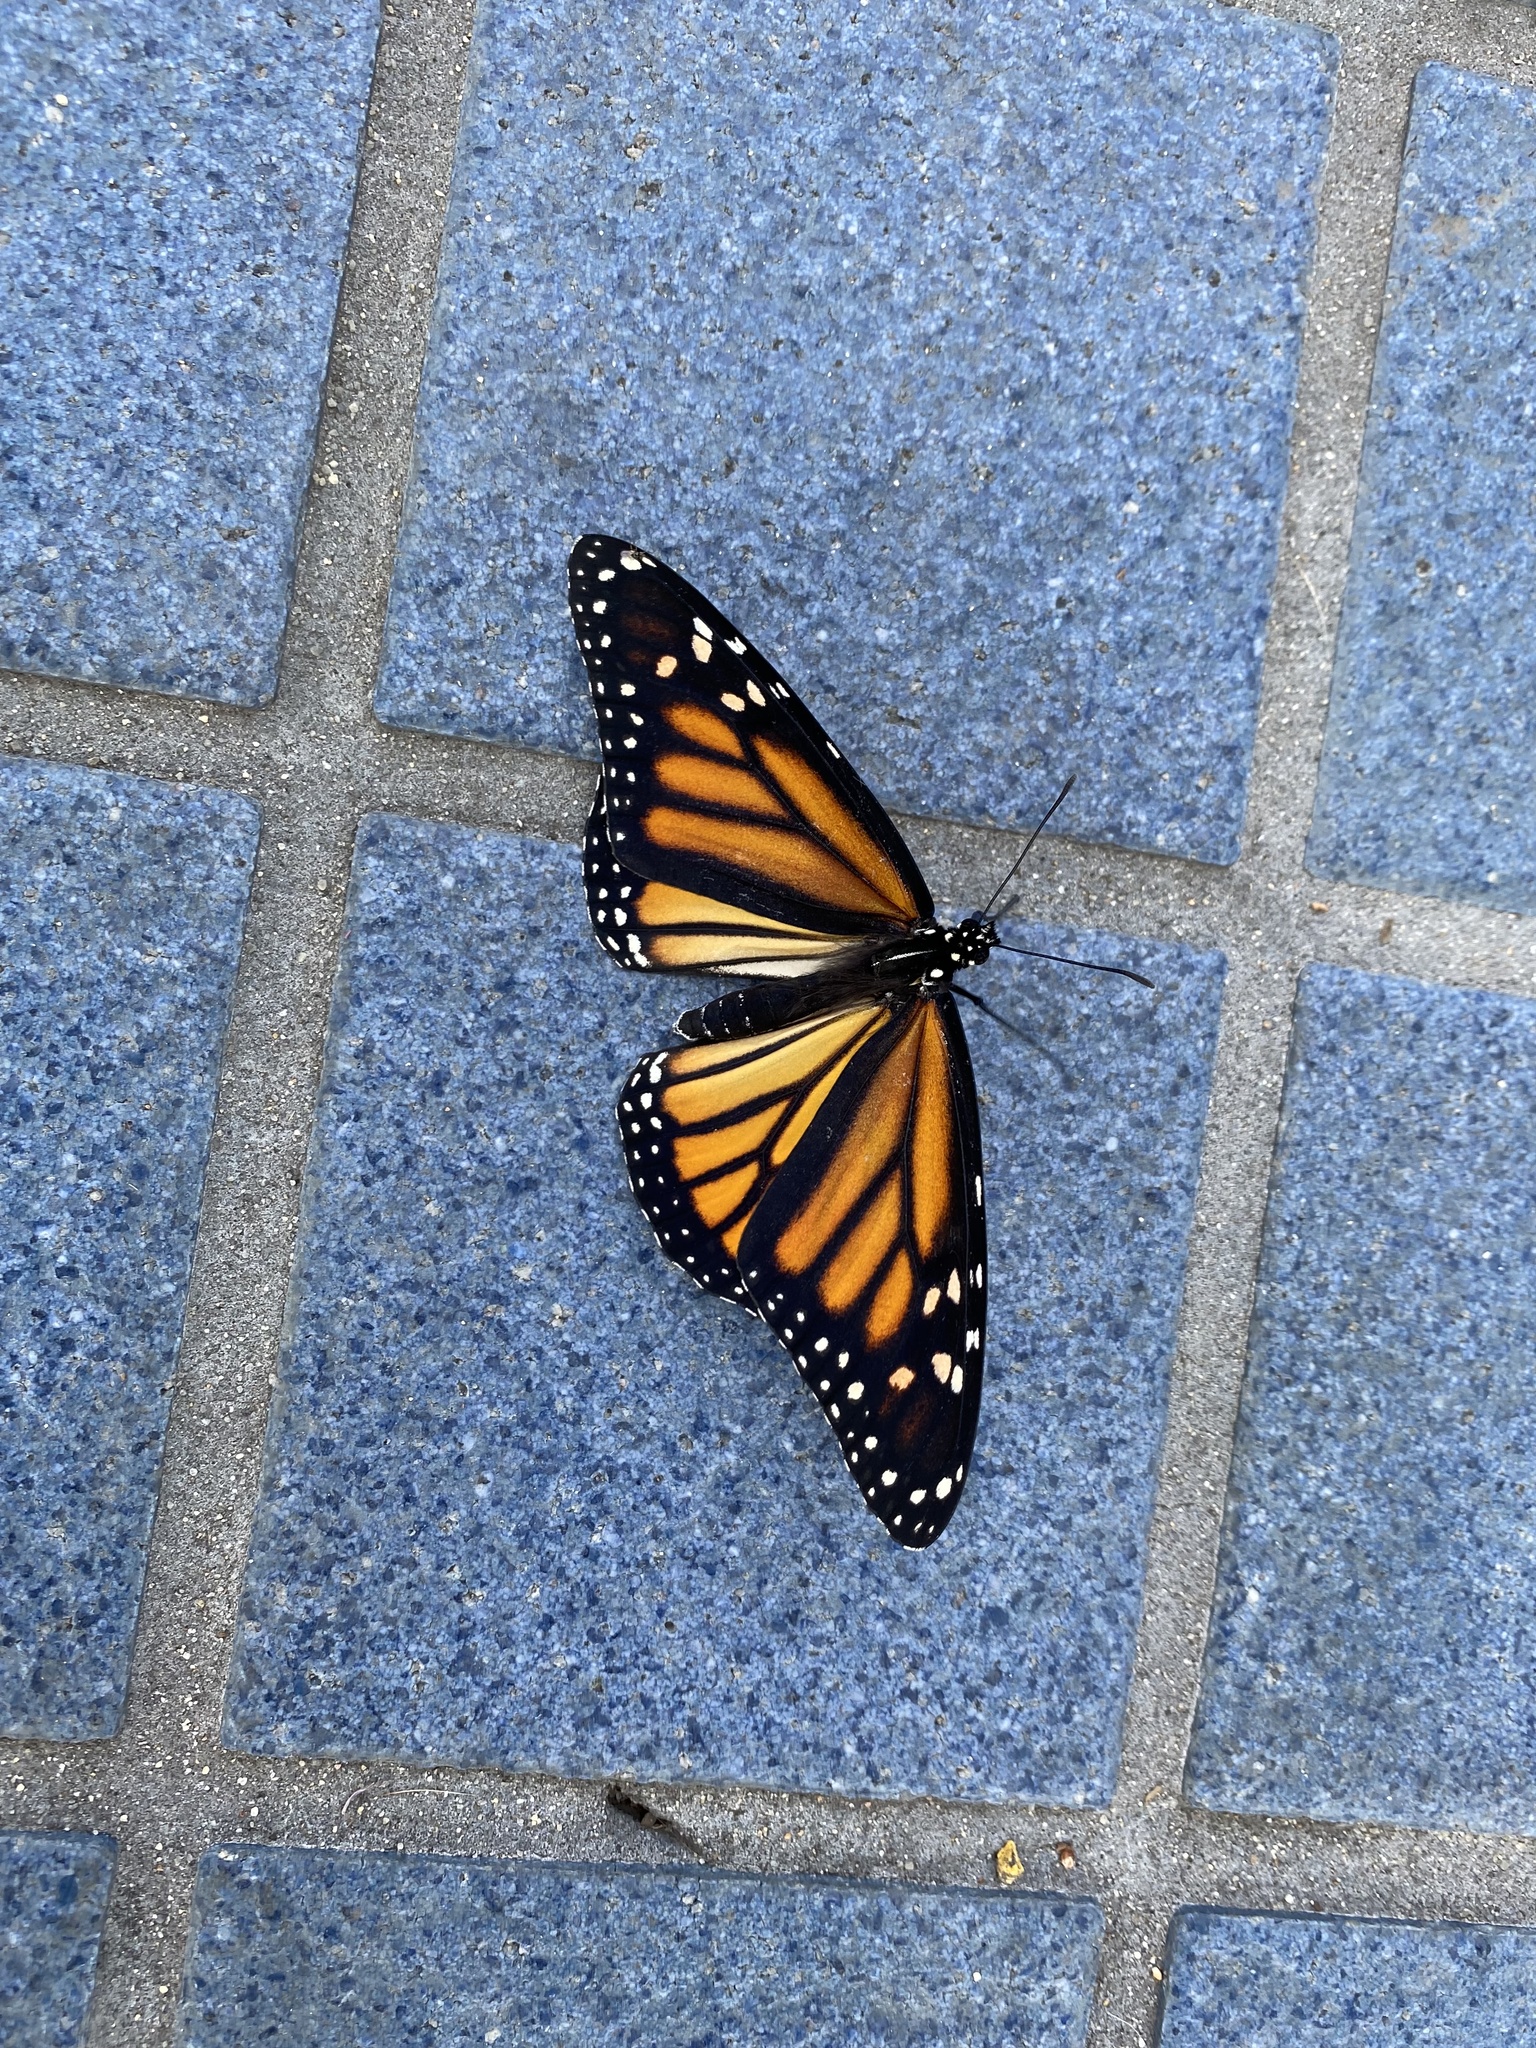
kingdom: Animalia
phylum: Arthropoda
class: Insecta
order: Lepidoptera
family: Nymphalidae
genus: Danaus
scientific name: Danaus plexippus
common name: Monarch
